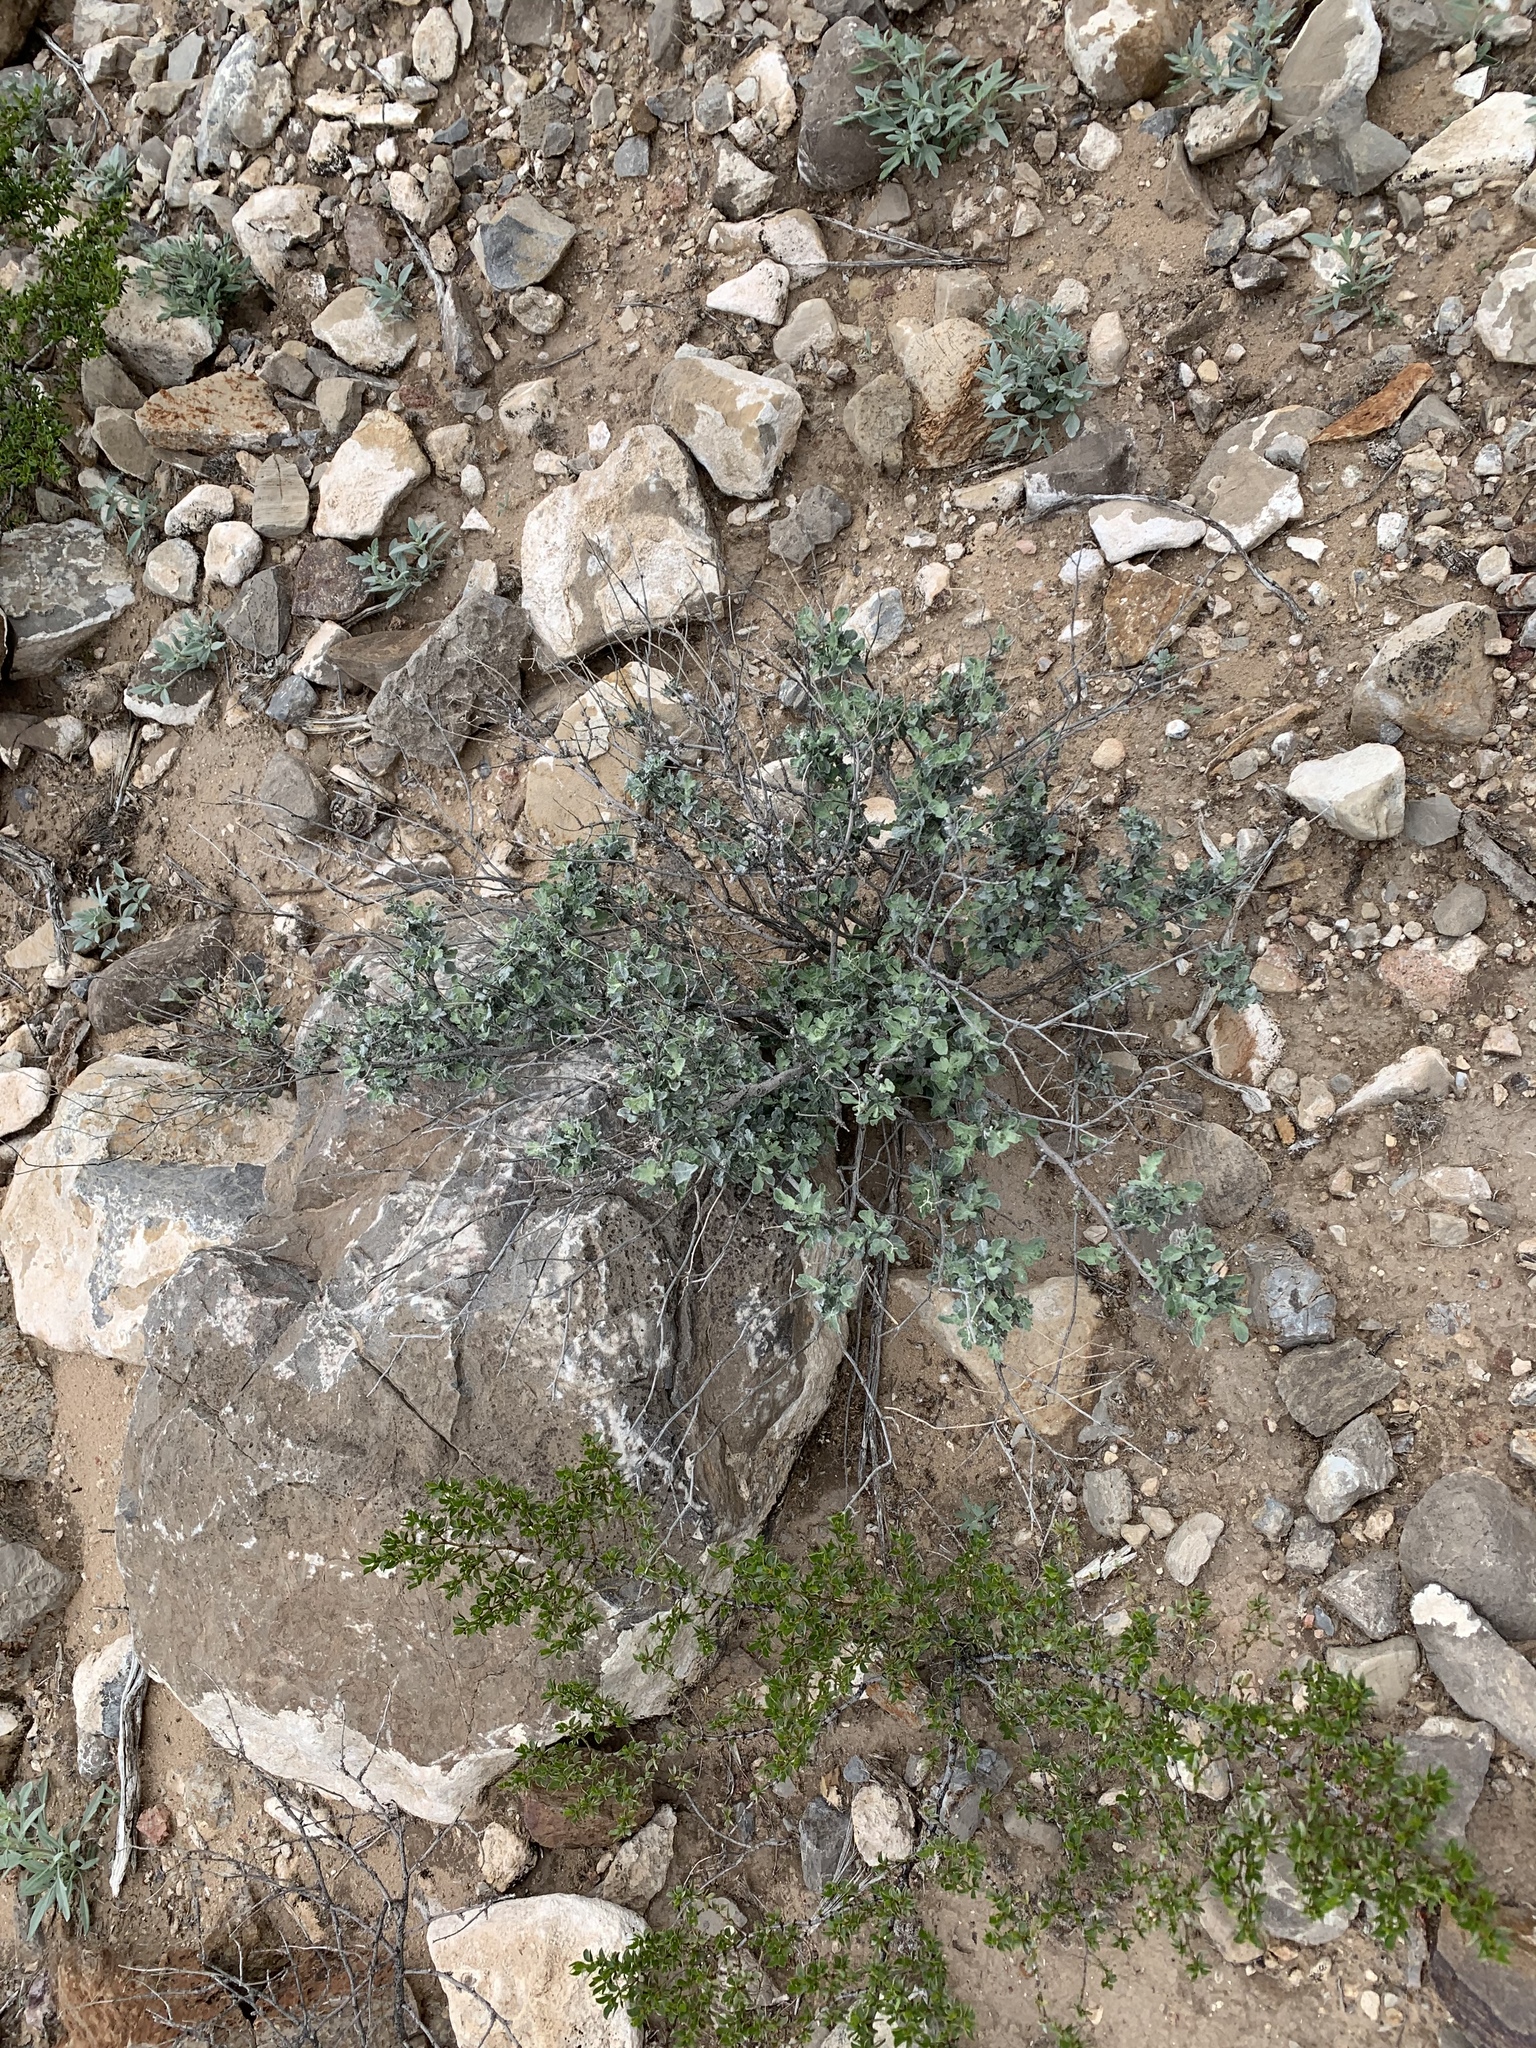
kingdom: Plantae
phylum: Tracheophyta
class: Magnoliopsida
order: Asterales
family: Asteraceae
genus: Parthenium
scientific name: Parthenium incanum
